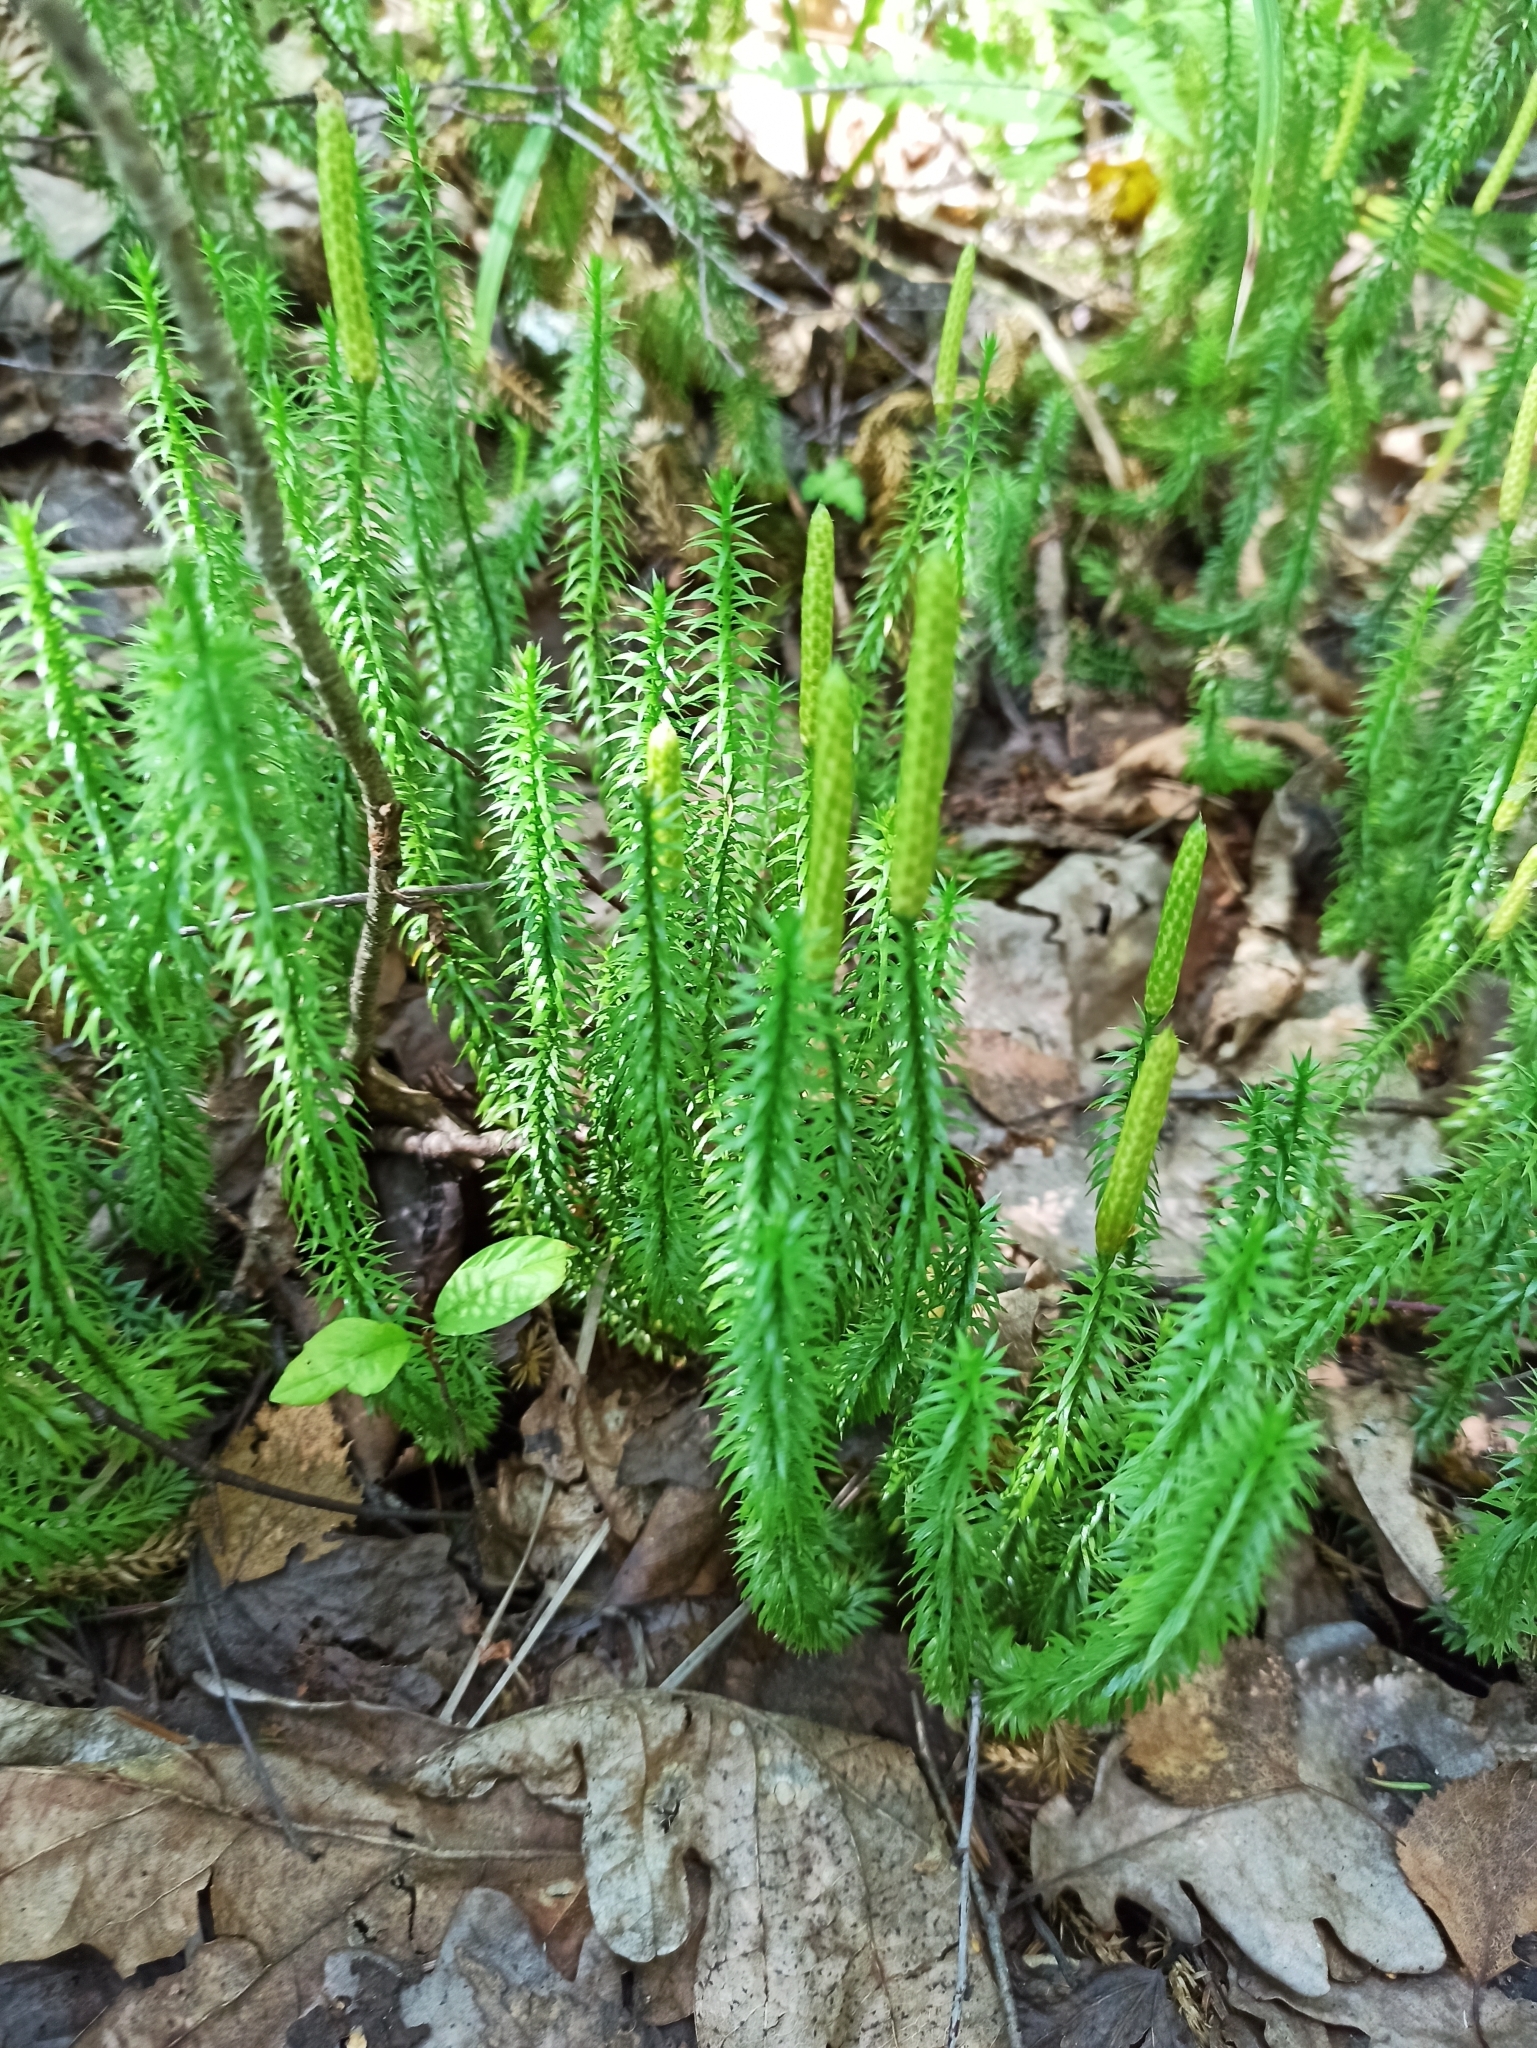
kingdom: Plantae
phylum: Tracheophyta
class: Lycopodiopsida
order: Lycopodiales
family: Lycopodiaceae
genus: Spinulum
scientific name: Spinulum annotinum
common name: Interrupted club-moss
